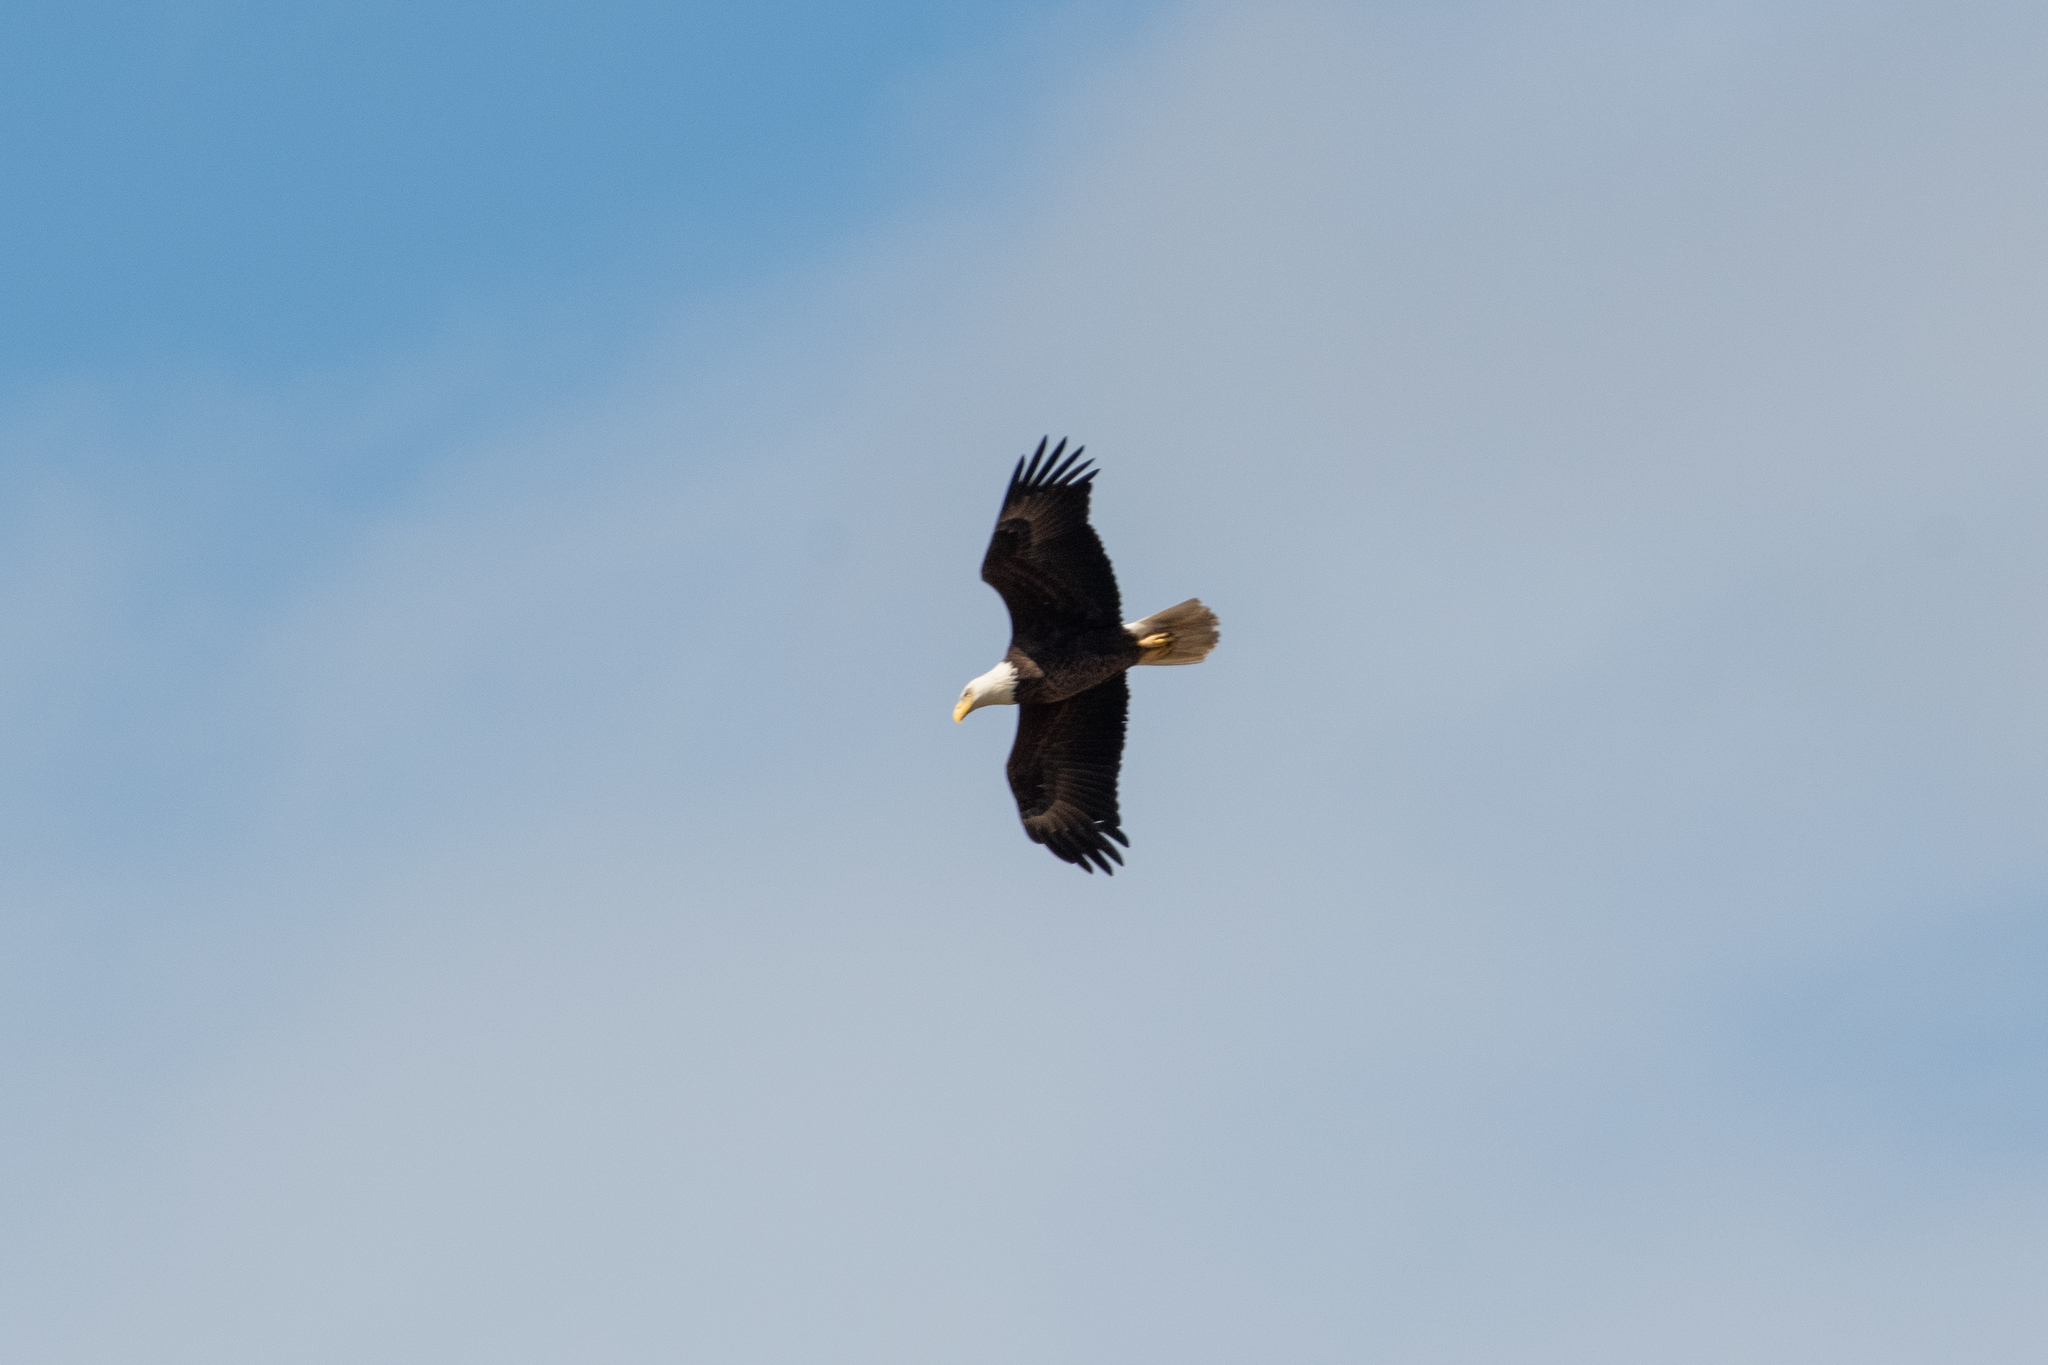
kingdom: Animalia
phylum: Chordata
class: Aves
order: Accipitriformes
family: Accipitridae
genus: Haliaeetus
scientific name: Haliaeetus leucocephalus
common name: Bald eagle
